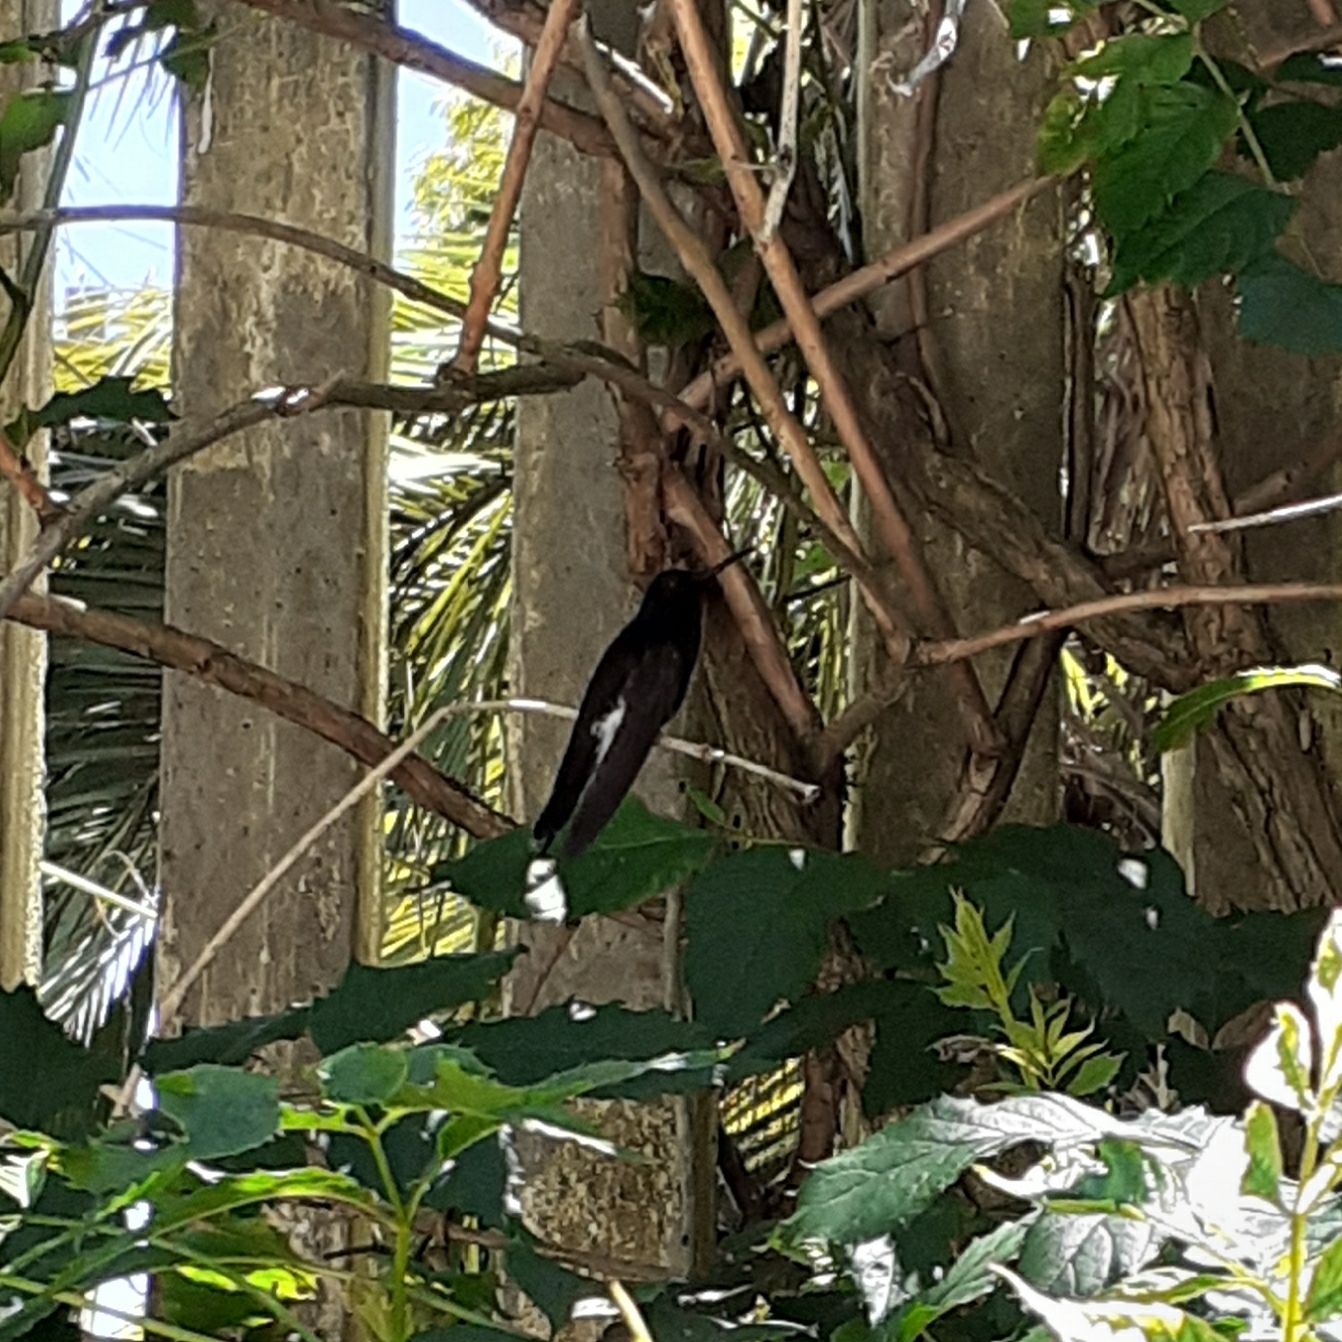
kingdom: Animalia
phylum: Chordata
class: Aves
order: Apodiformes
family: Trochilidae
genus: Florisuga
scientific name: Florisuga fusca
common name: Black jacobin
